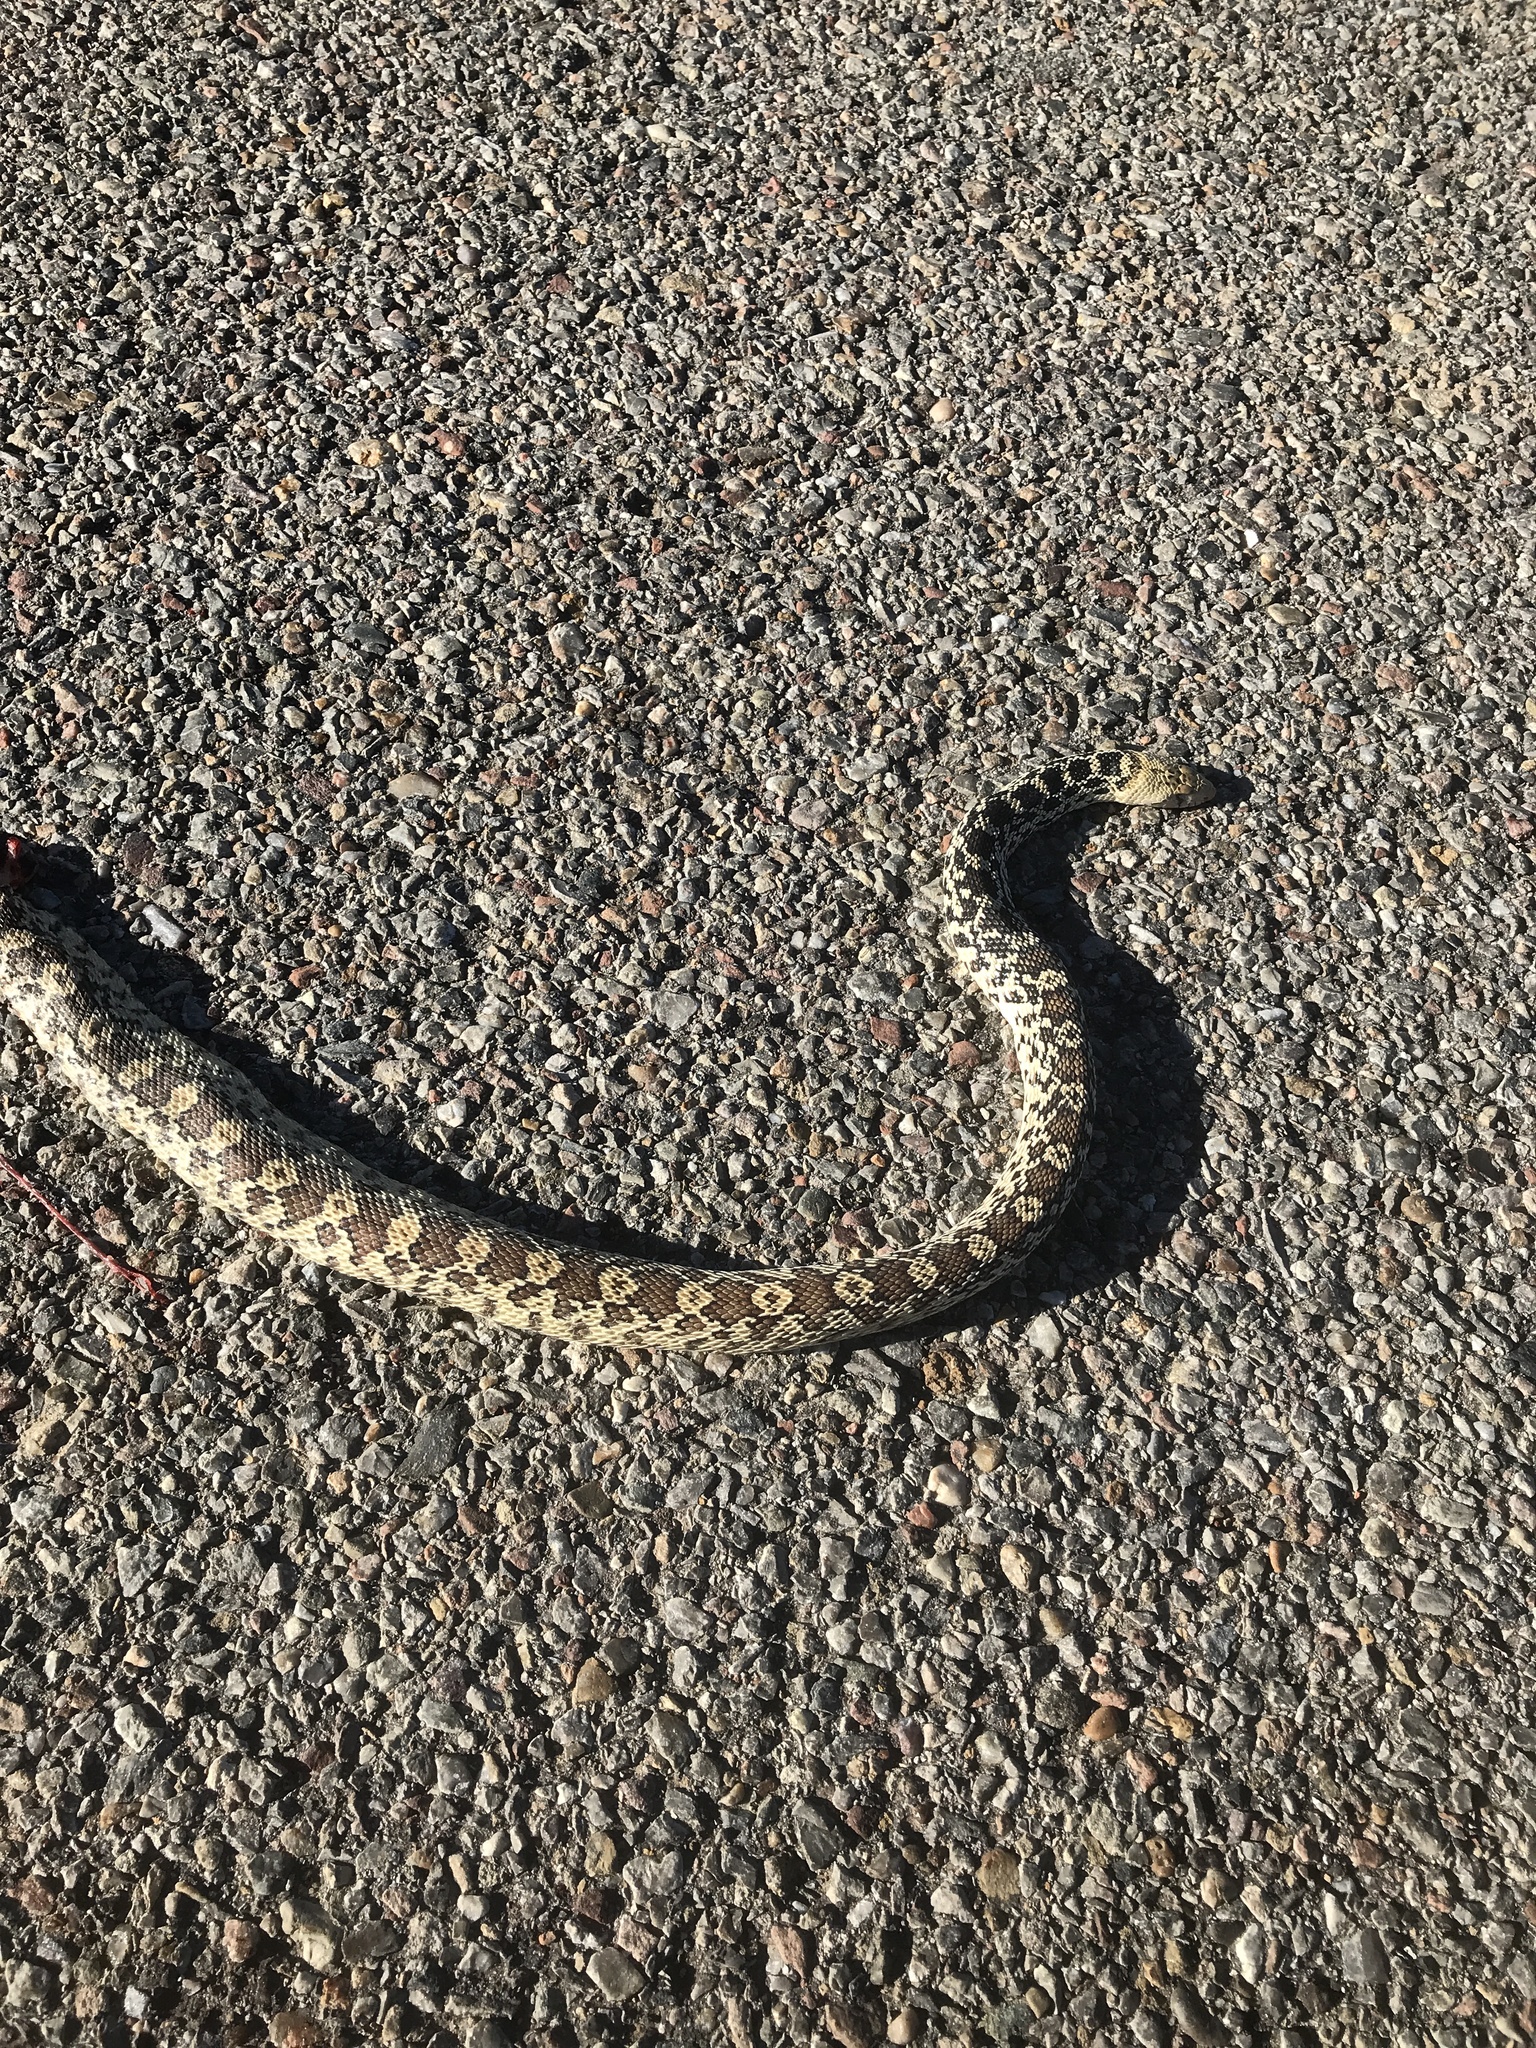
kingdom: Animalia
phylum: Chordata
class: Squamata
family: Colubridae
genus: Pituophis
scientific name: Pituophis catenifer
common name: Gopher snake
